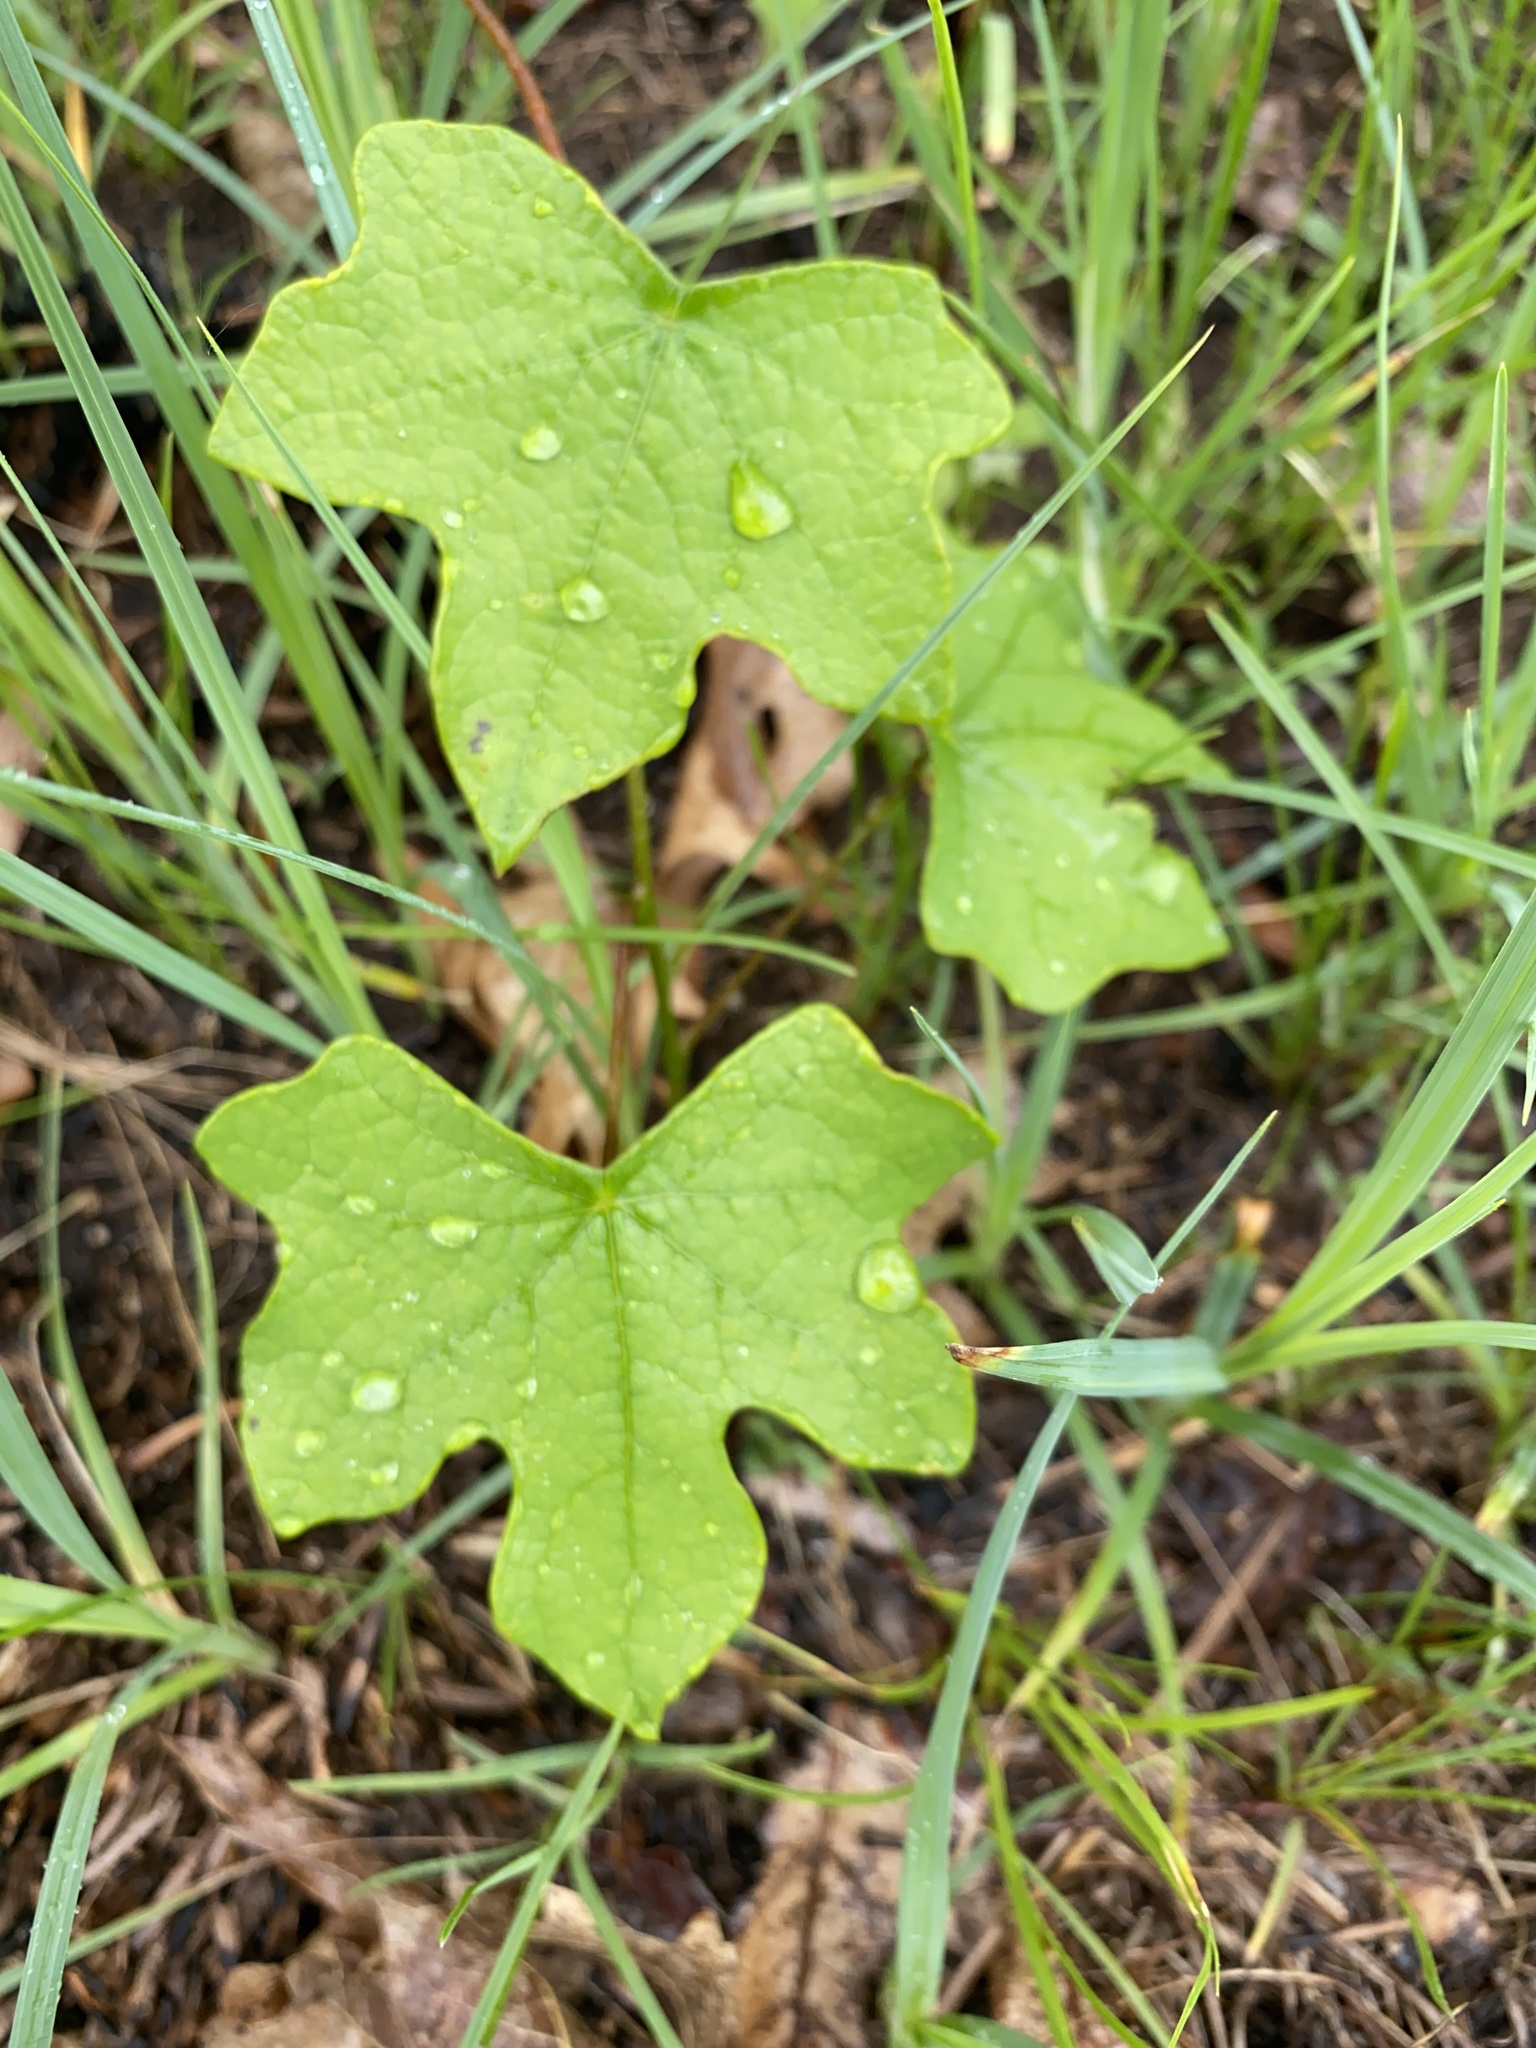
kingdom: Plantae
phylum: Tracheophyta
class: Magnoliopsida
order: Ranunculales
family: Menispermaceae
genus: Menispermum
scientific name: Menispermum canadense
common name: Moonseed
